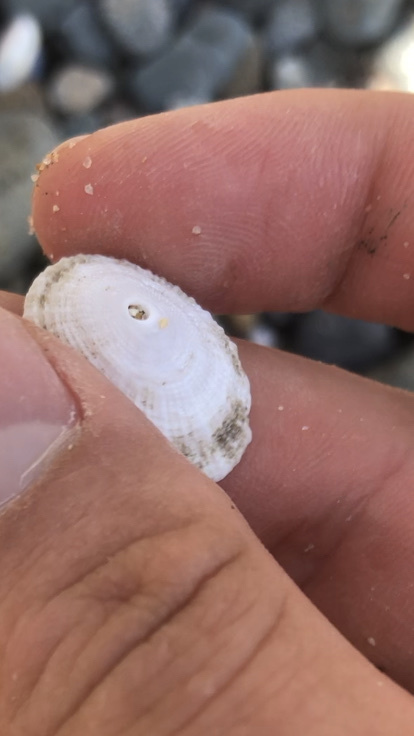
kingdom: Animalia
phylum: Mollusca
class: Gastropoda
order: Lepetellida
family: Fissurellidae
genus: Diodora
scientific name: Diodora aspera
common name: Rough keyhole limpet
